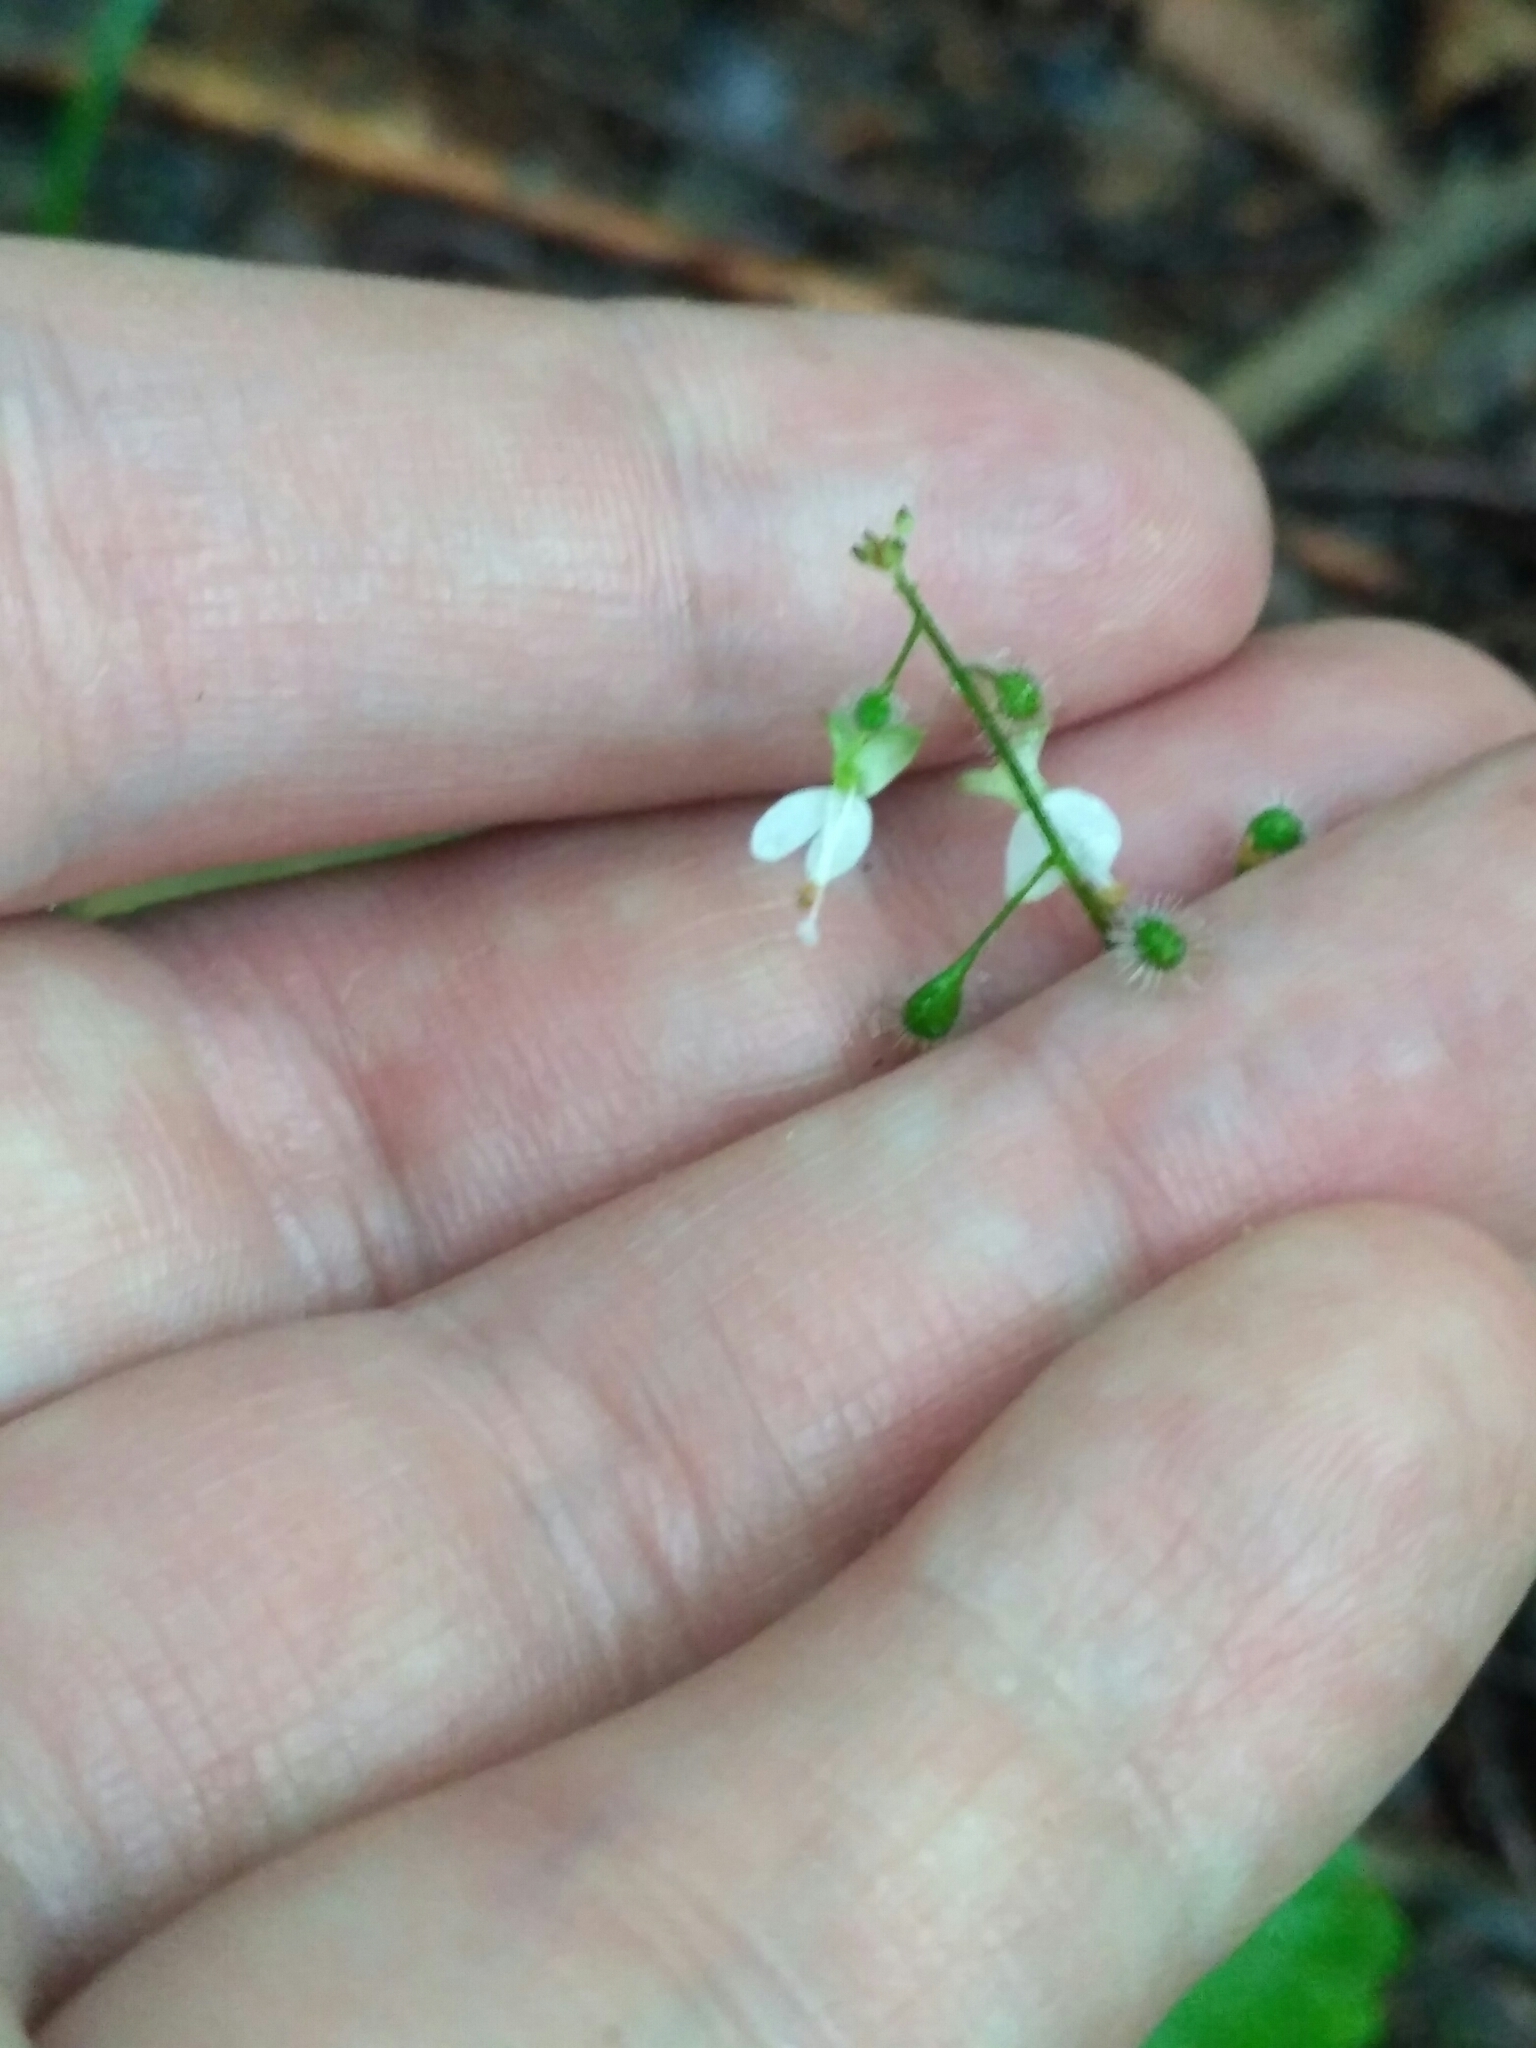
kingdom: Plantae
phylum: Tracheophyta
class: Magnoliopsida
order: Myrtales
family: Onagraceae
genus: Circaea
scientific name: Circaea lutetiana
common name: Enchanter's-nightshade
